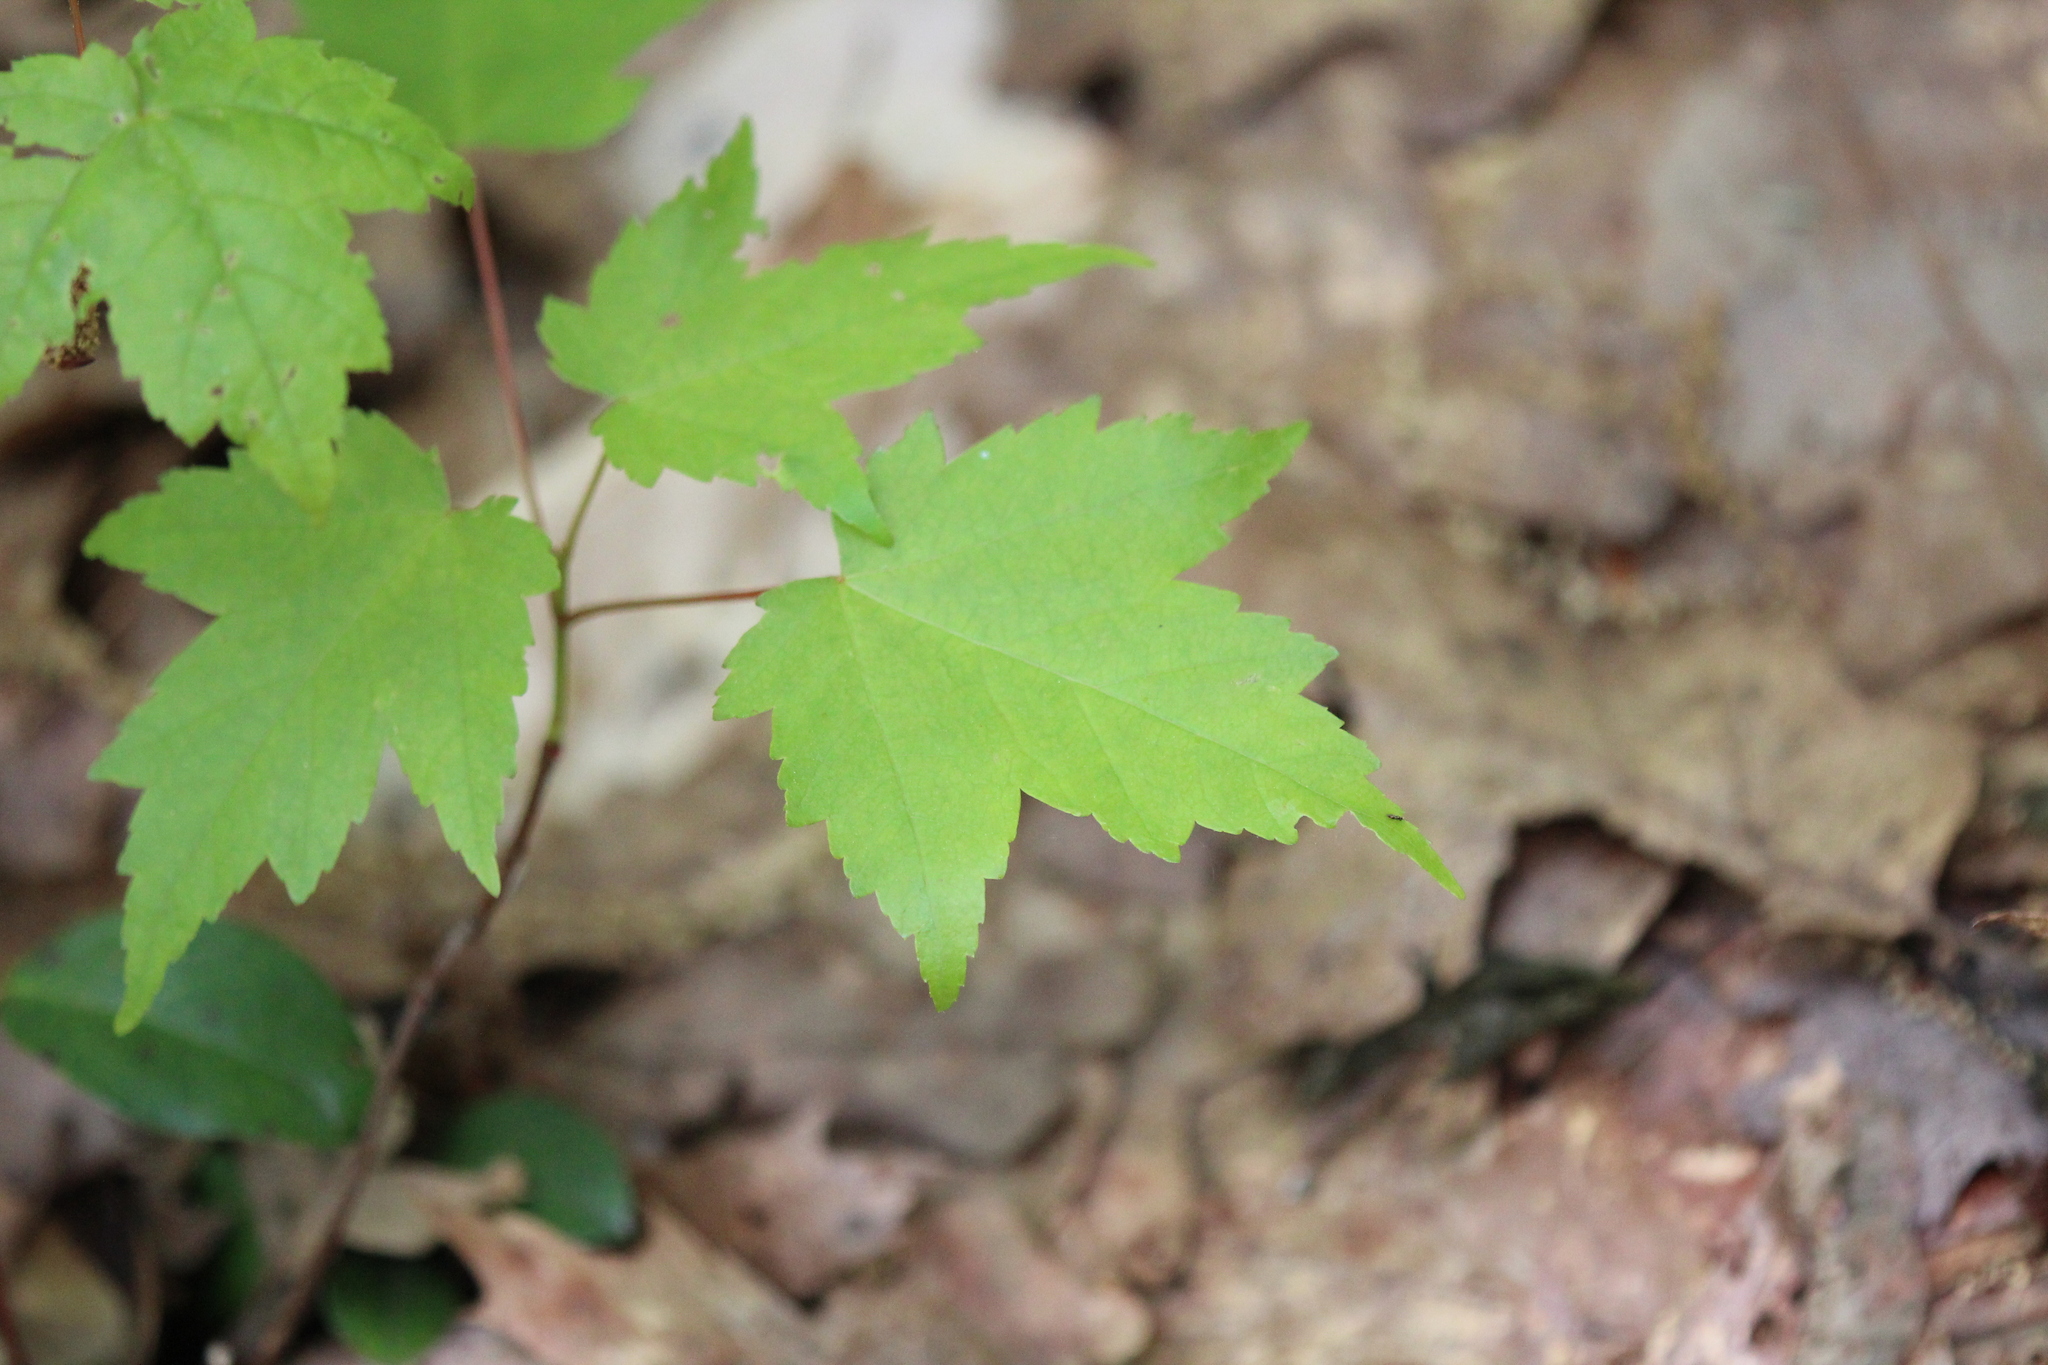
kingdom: Plantae
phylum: Tracheophyta
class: Magnoliopsida
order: Sapindales
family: Sapindaceae
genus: Acer
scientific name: Acer rubrum
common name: Red maple
